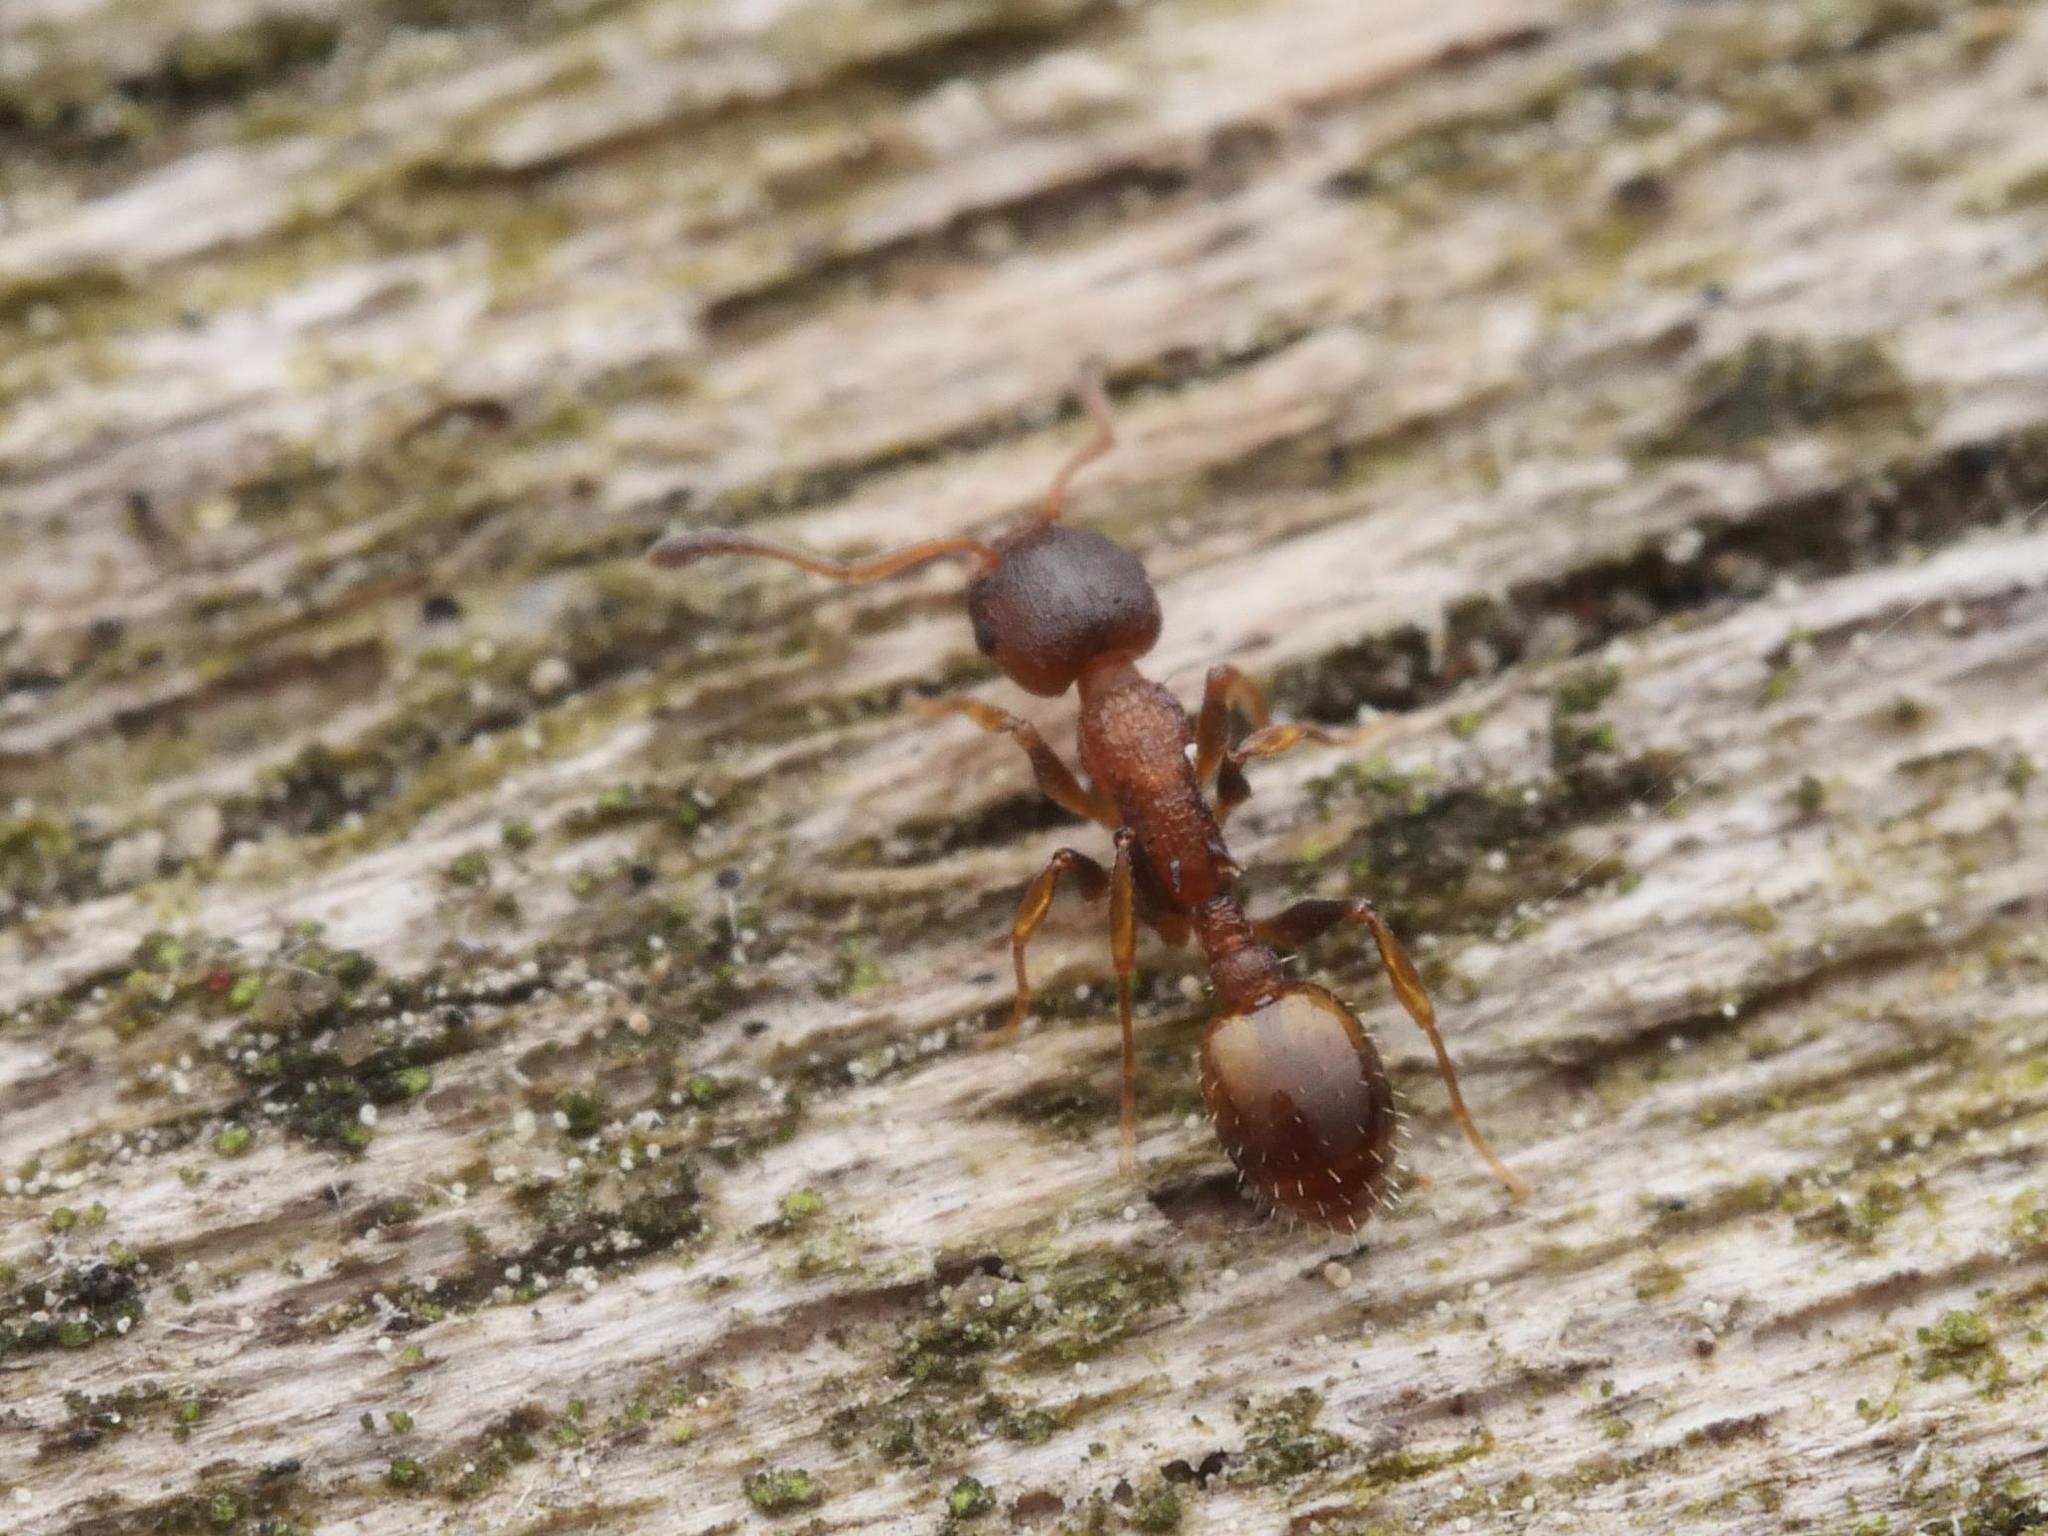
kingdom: Animalia
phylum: Arthropoda
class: Insecta
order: Hymenoptera
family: Formicidae
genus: Leptothorax
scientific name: Leptothorax affinis
